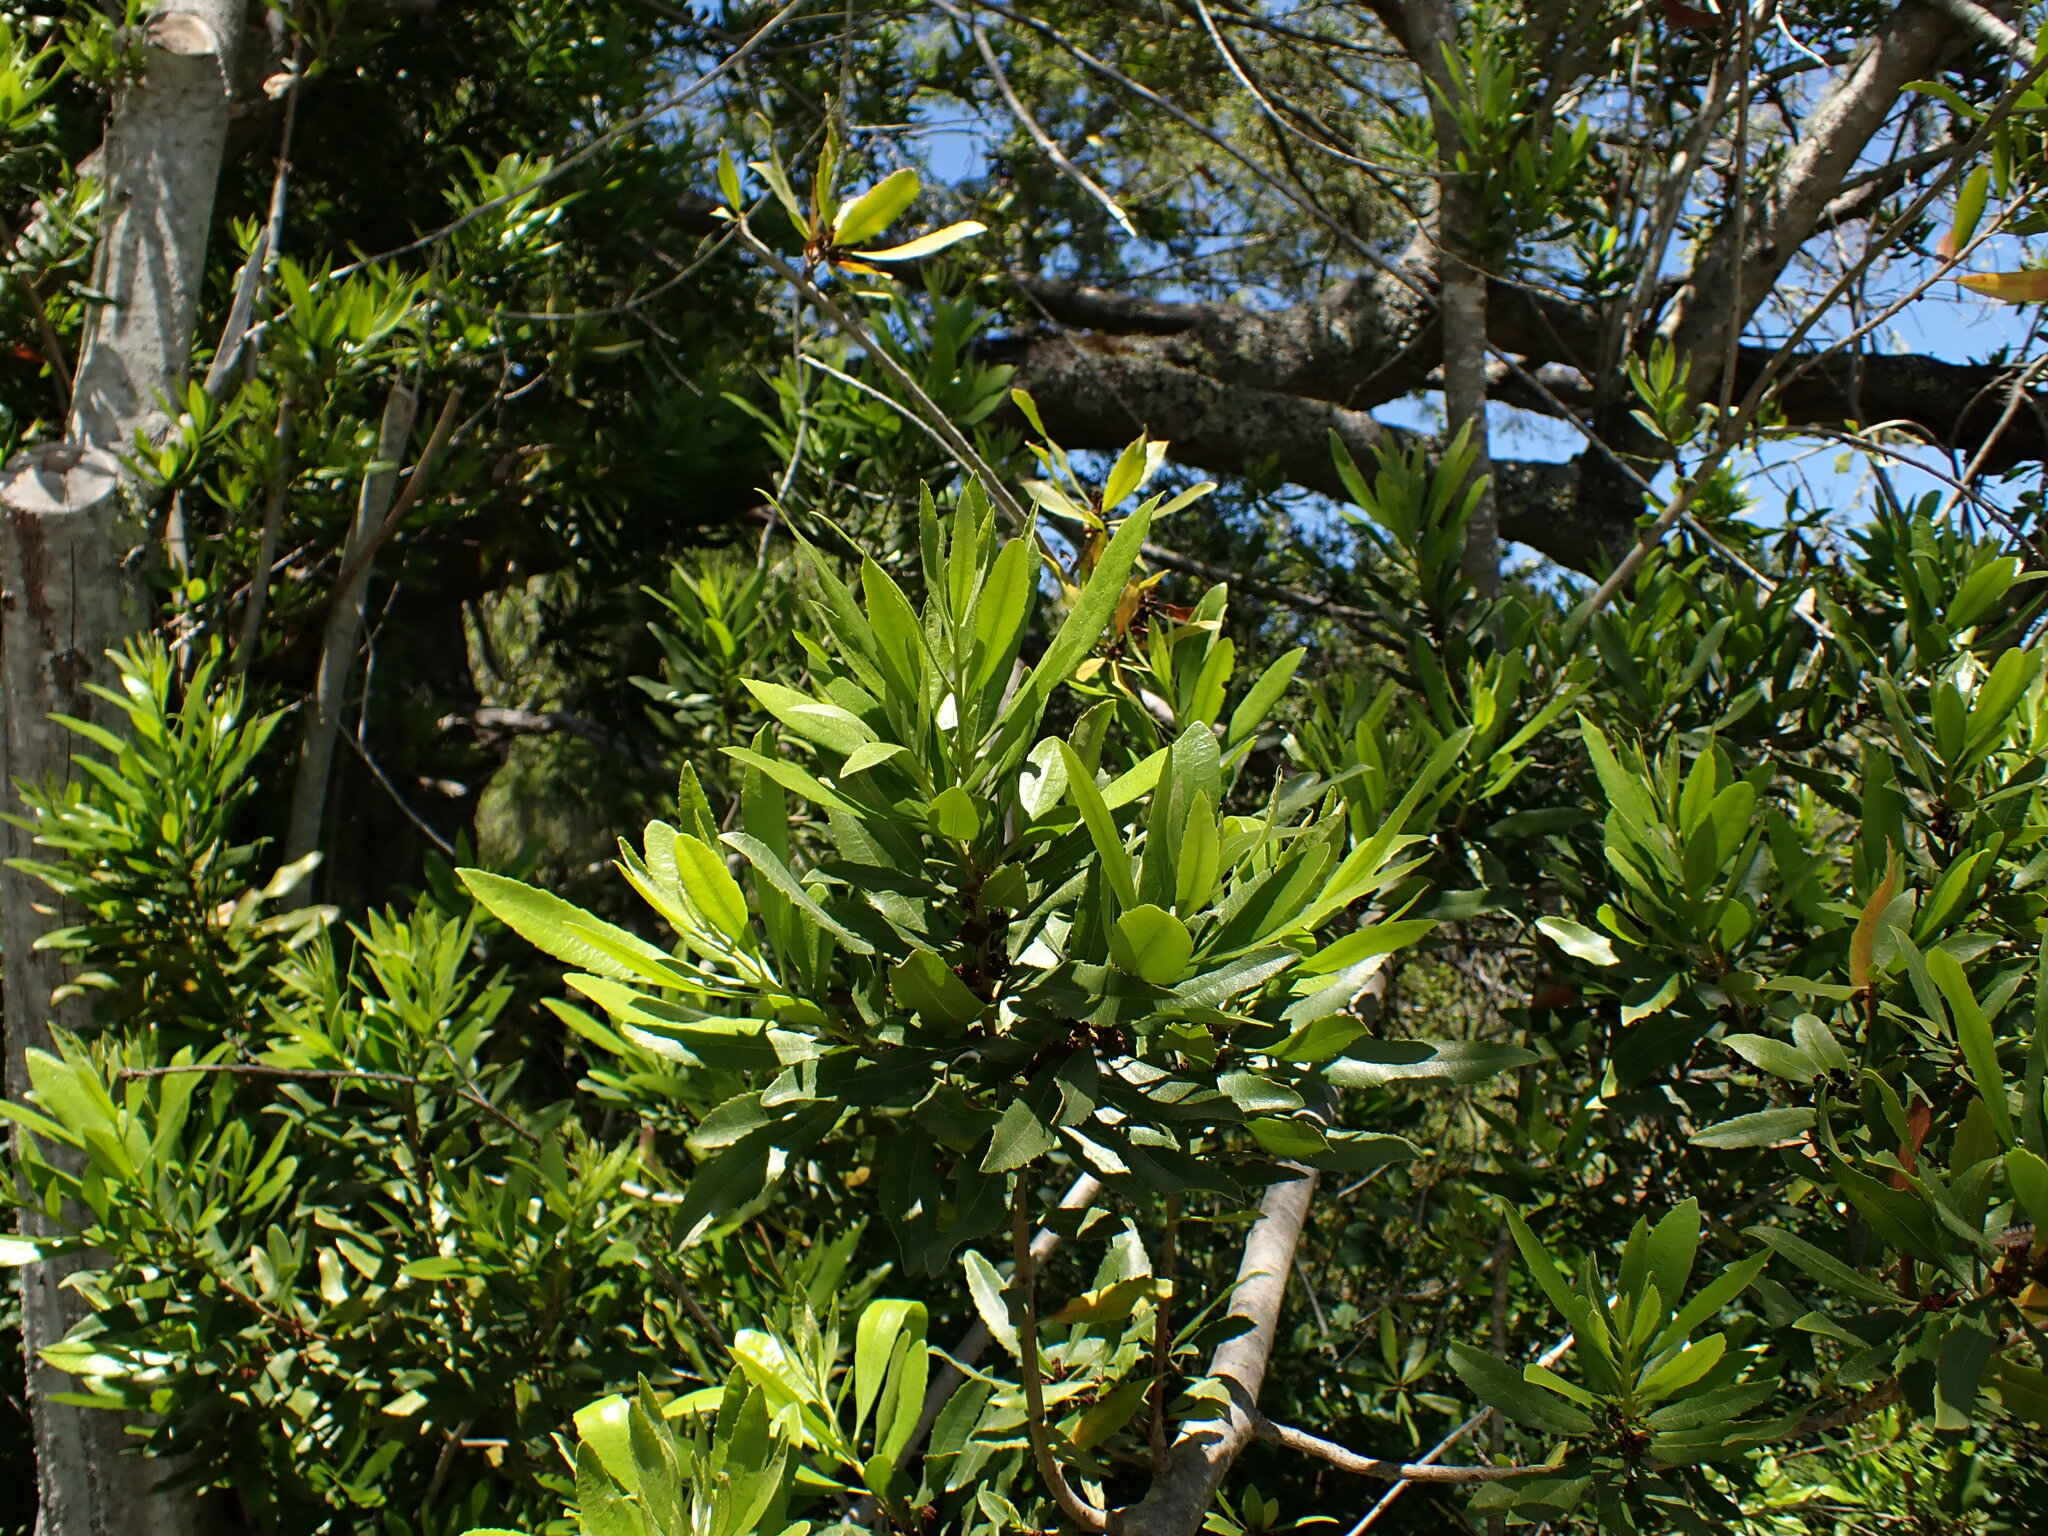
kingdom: Plantae
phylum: Tracheophyta
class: Magnoliopsida
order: Fagales
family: Myricaceae
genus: Morella
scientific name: Morella californica
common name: California wax-myrtle
